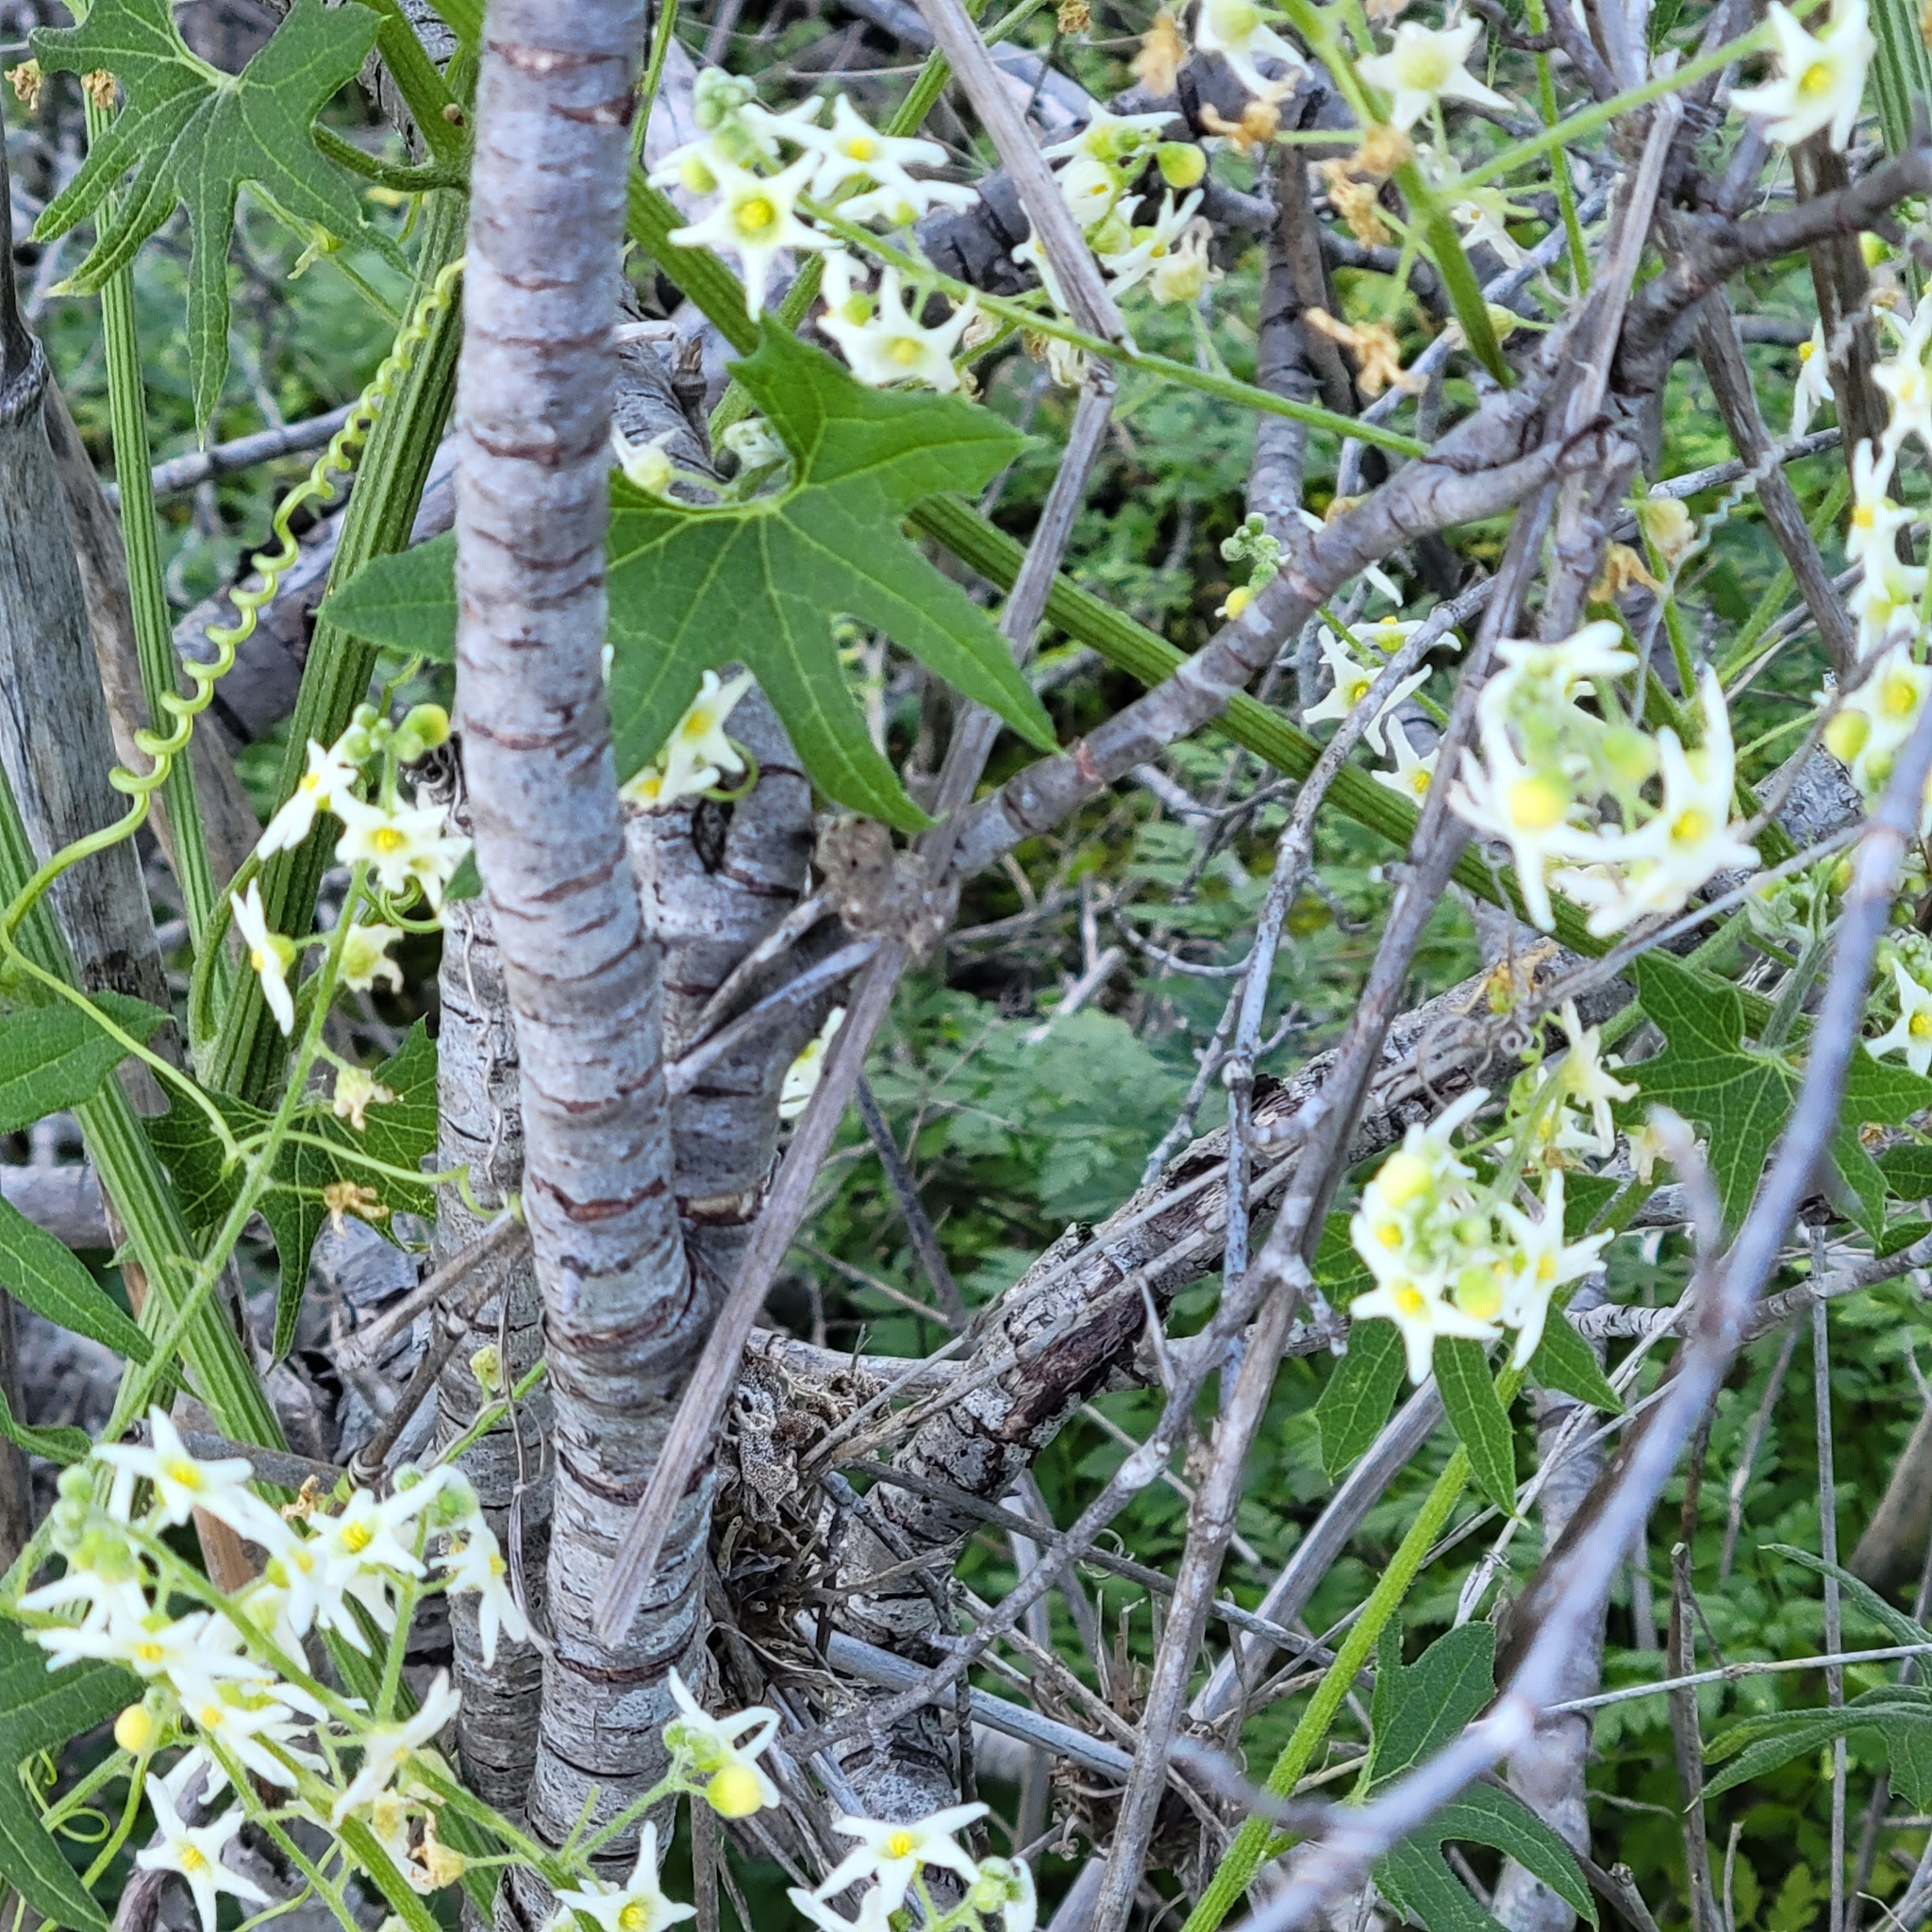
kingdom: Plantae
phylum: Tracheophyta
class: Magnoliopsida
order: Cucurbitales
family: Cucurbitaceae
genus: Marah
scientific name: Marah macrocarpa
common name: Cucamonga manroot
